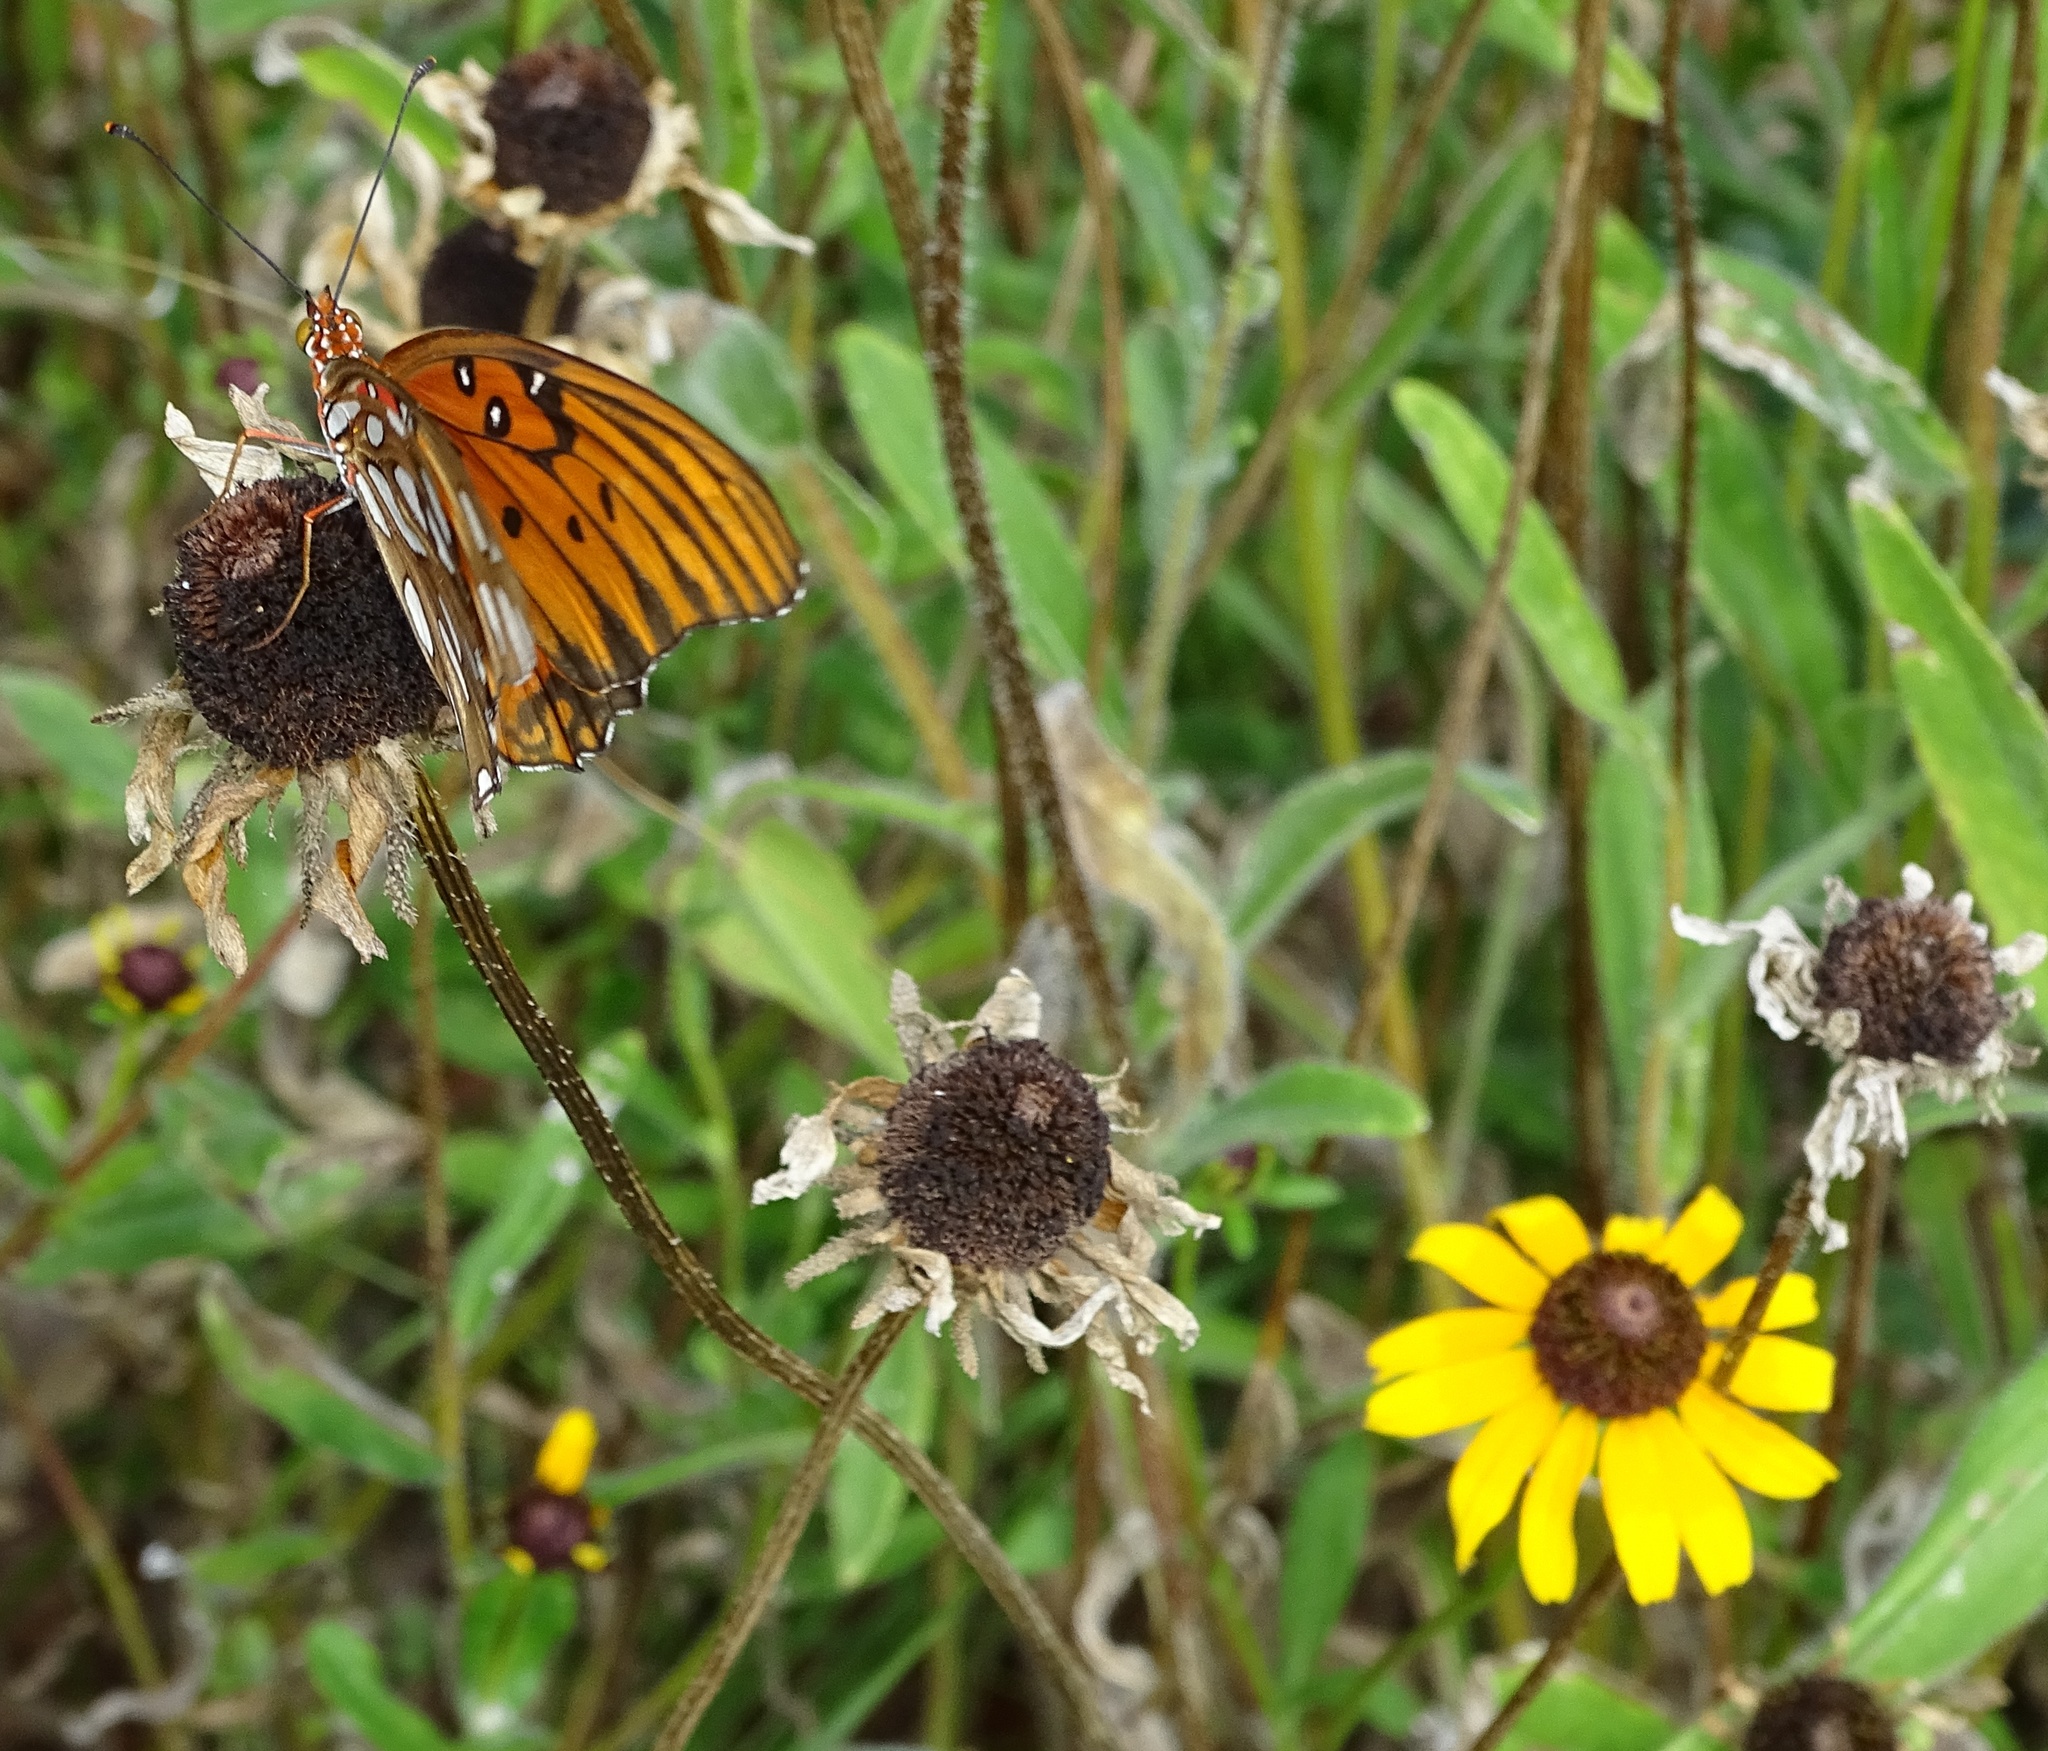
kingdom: Animalia
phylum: Arthropoda
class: Insecta
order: Lepidoptera
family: Nymphalidae
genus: Dione
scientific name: Dione vanillae
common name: Gulf fritillary
